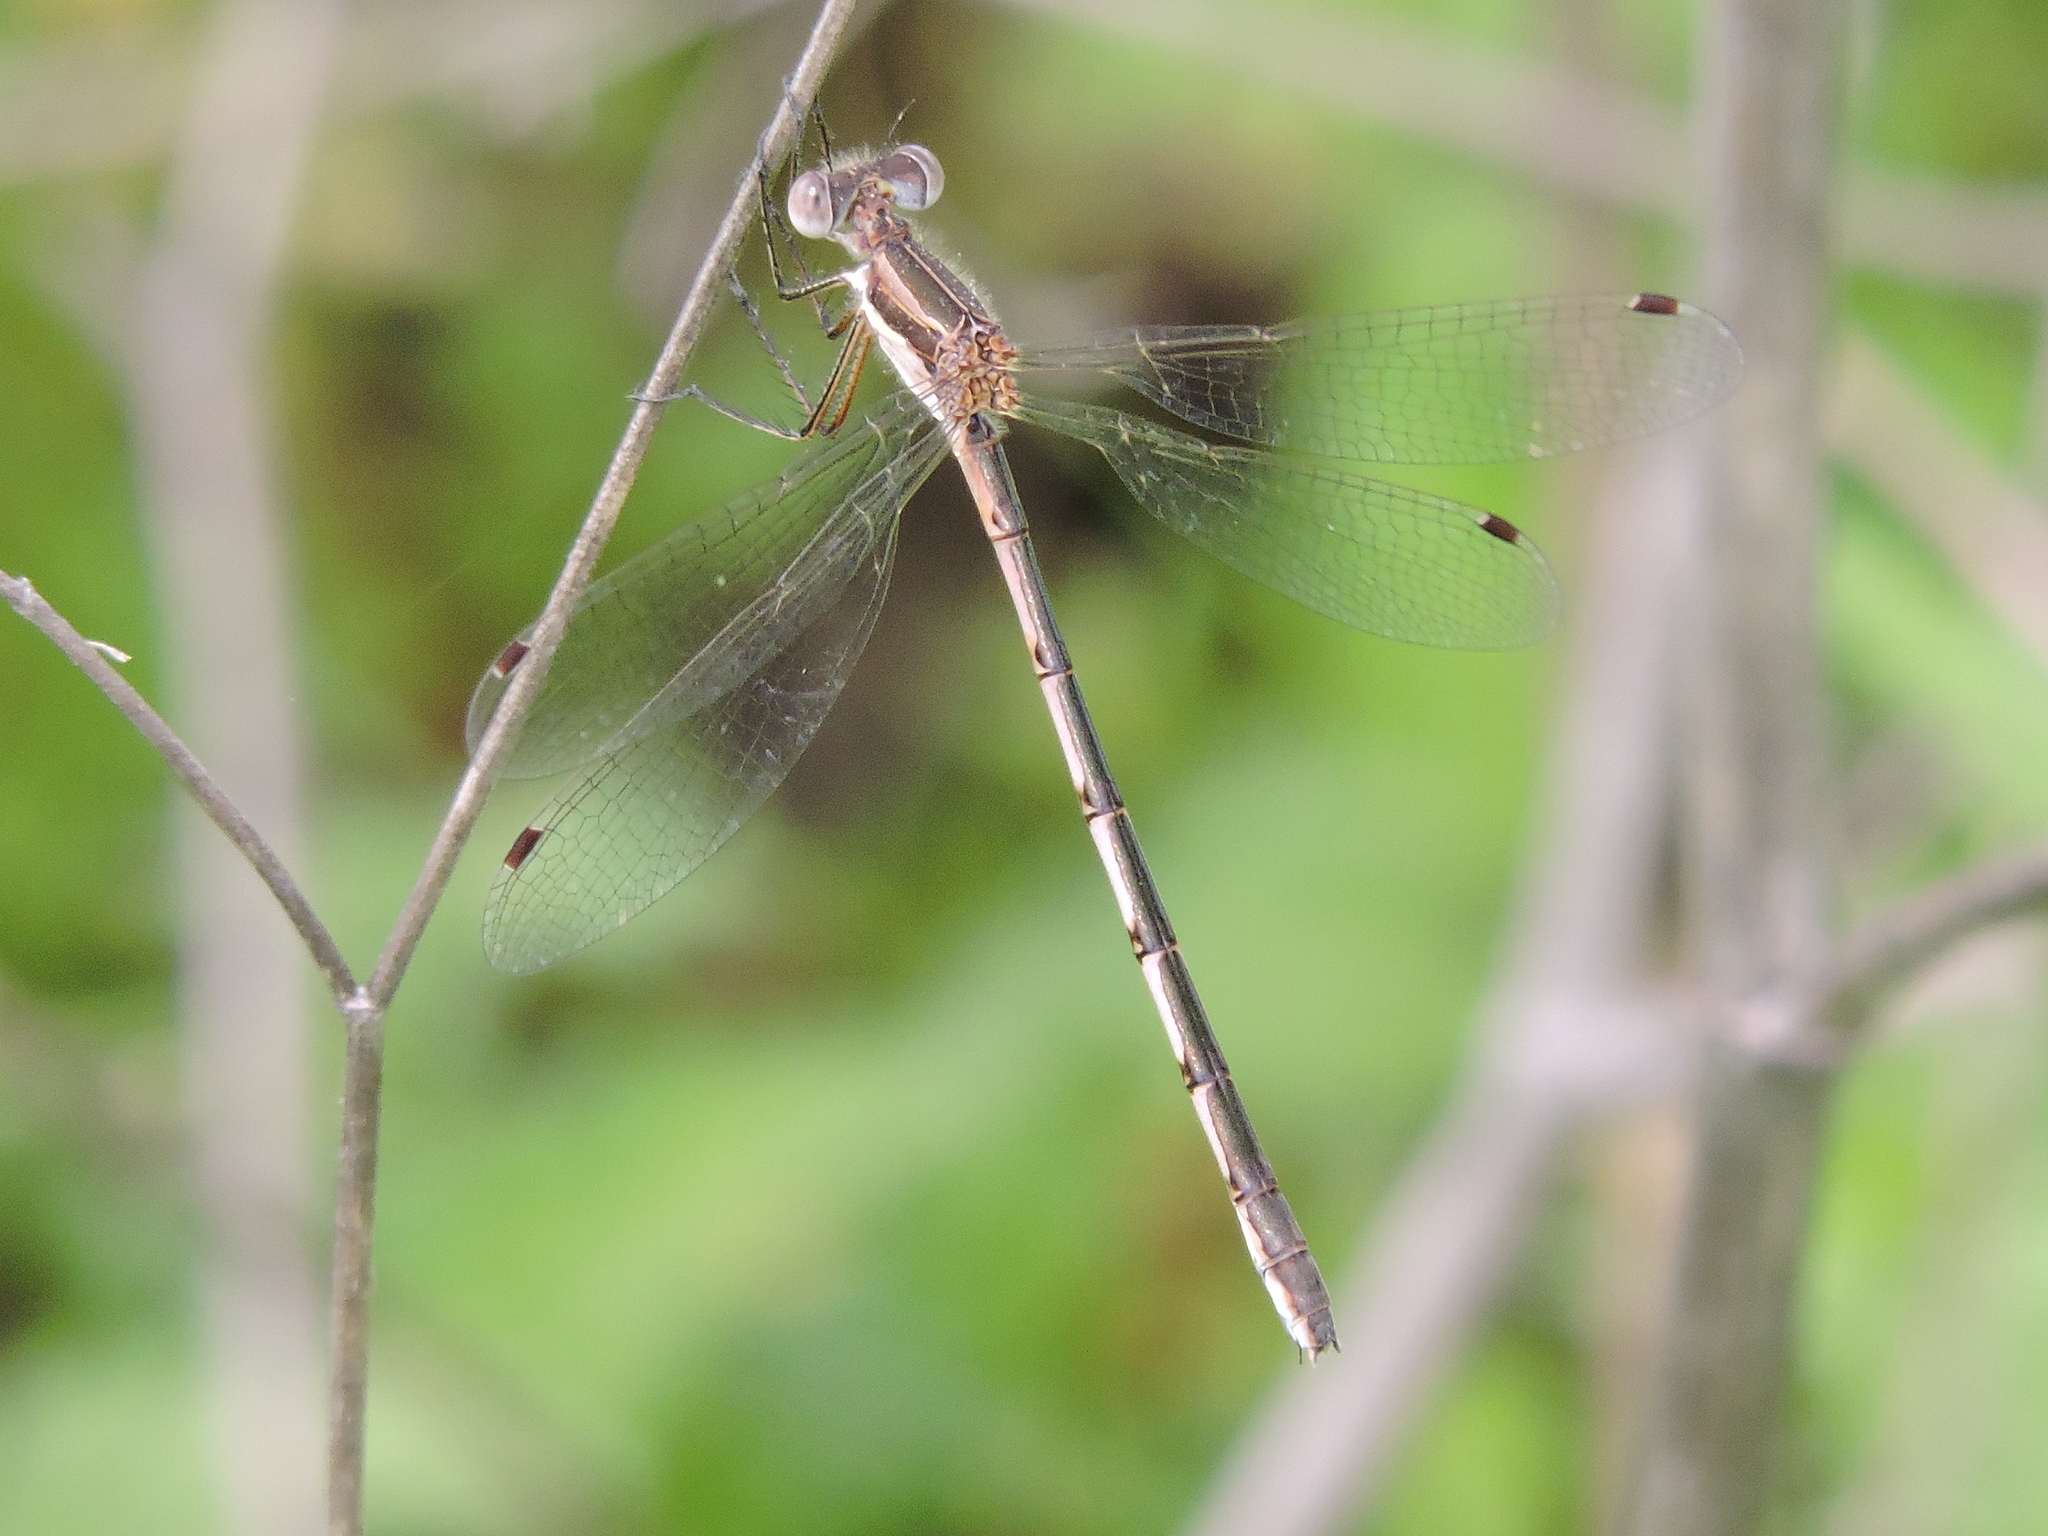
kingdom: Animalia
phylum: Arthropoda
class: Insecta
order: Odonata
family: Lestidae
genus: Lestes
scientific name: Lestes australis
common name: Southern spreadwing
